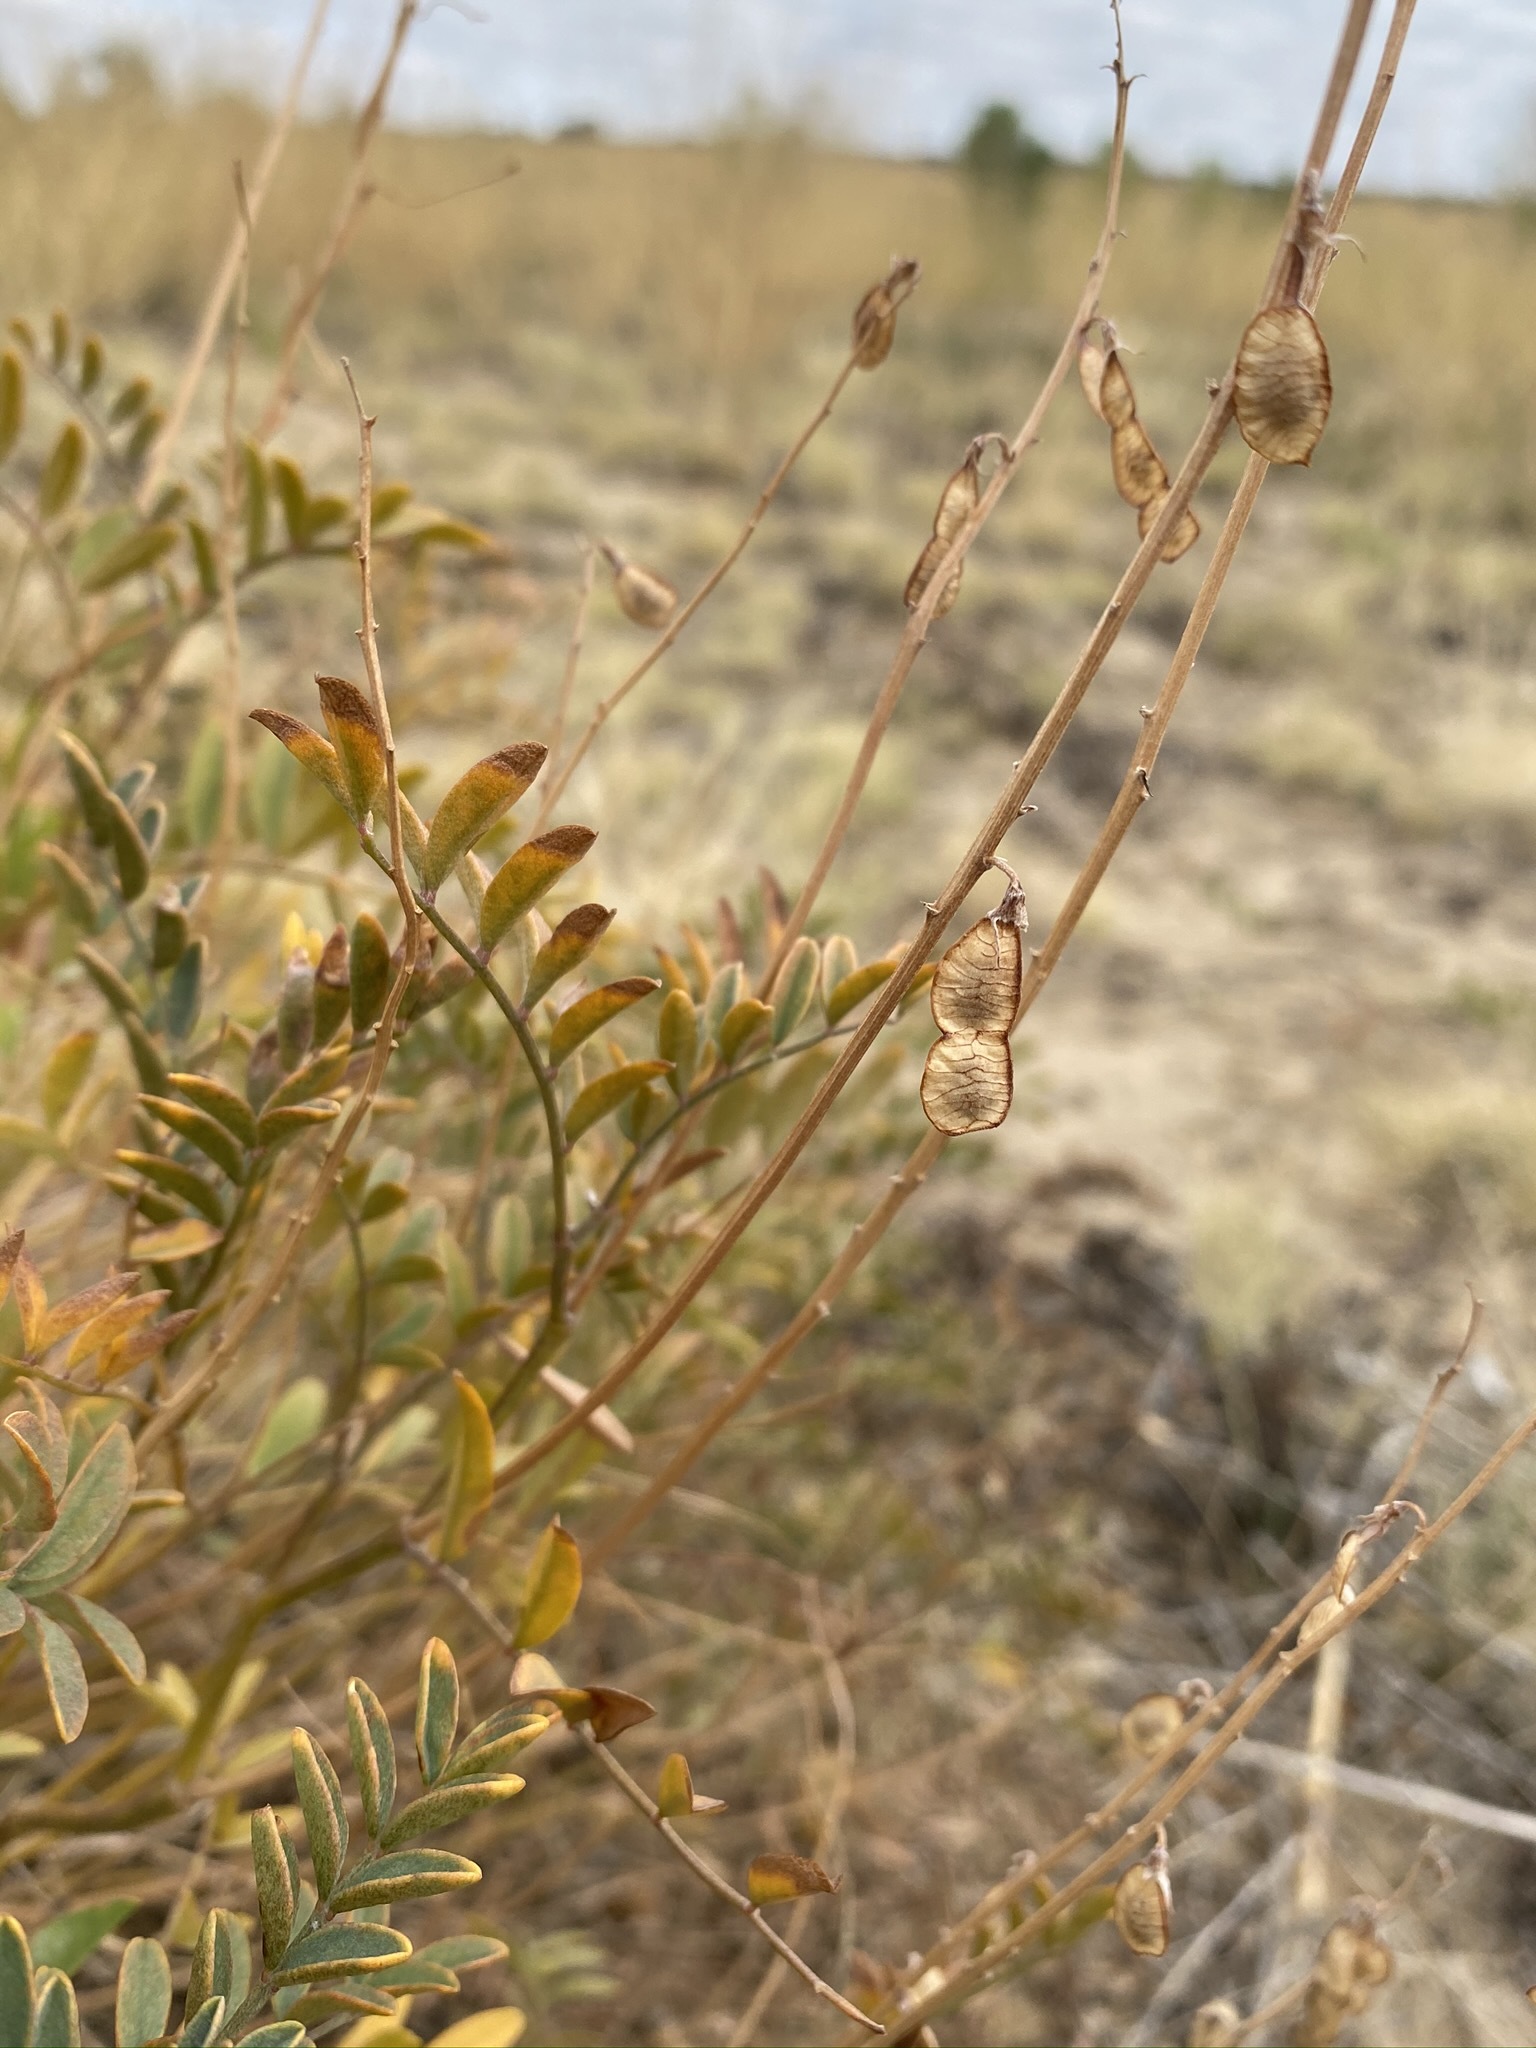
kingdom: Plantae
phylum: Tracheophyta
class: Magnoliopsida
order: Fabales
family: Fabaceae
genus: Hedysarum
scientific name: Hedysarum boreale
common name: Northern sweet-vetch
